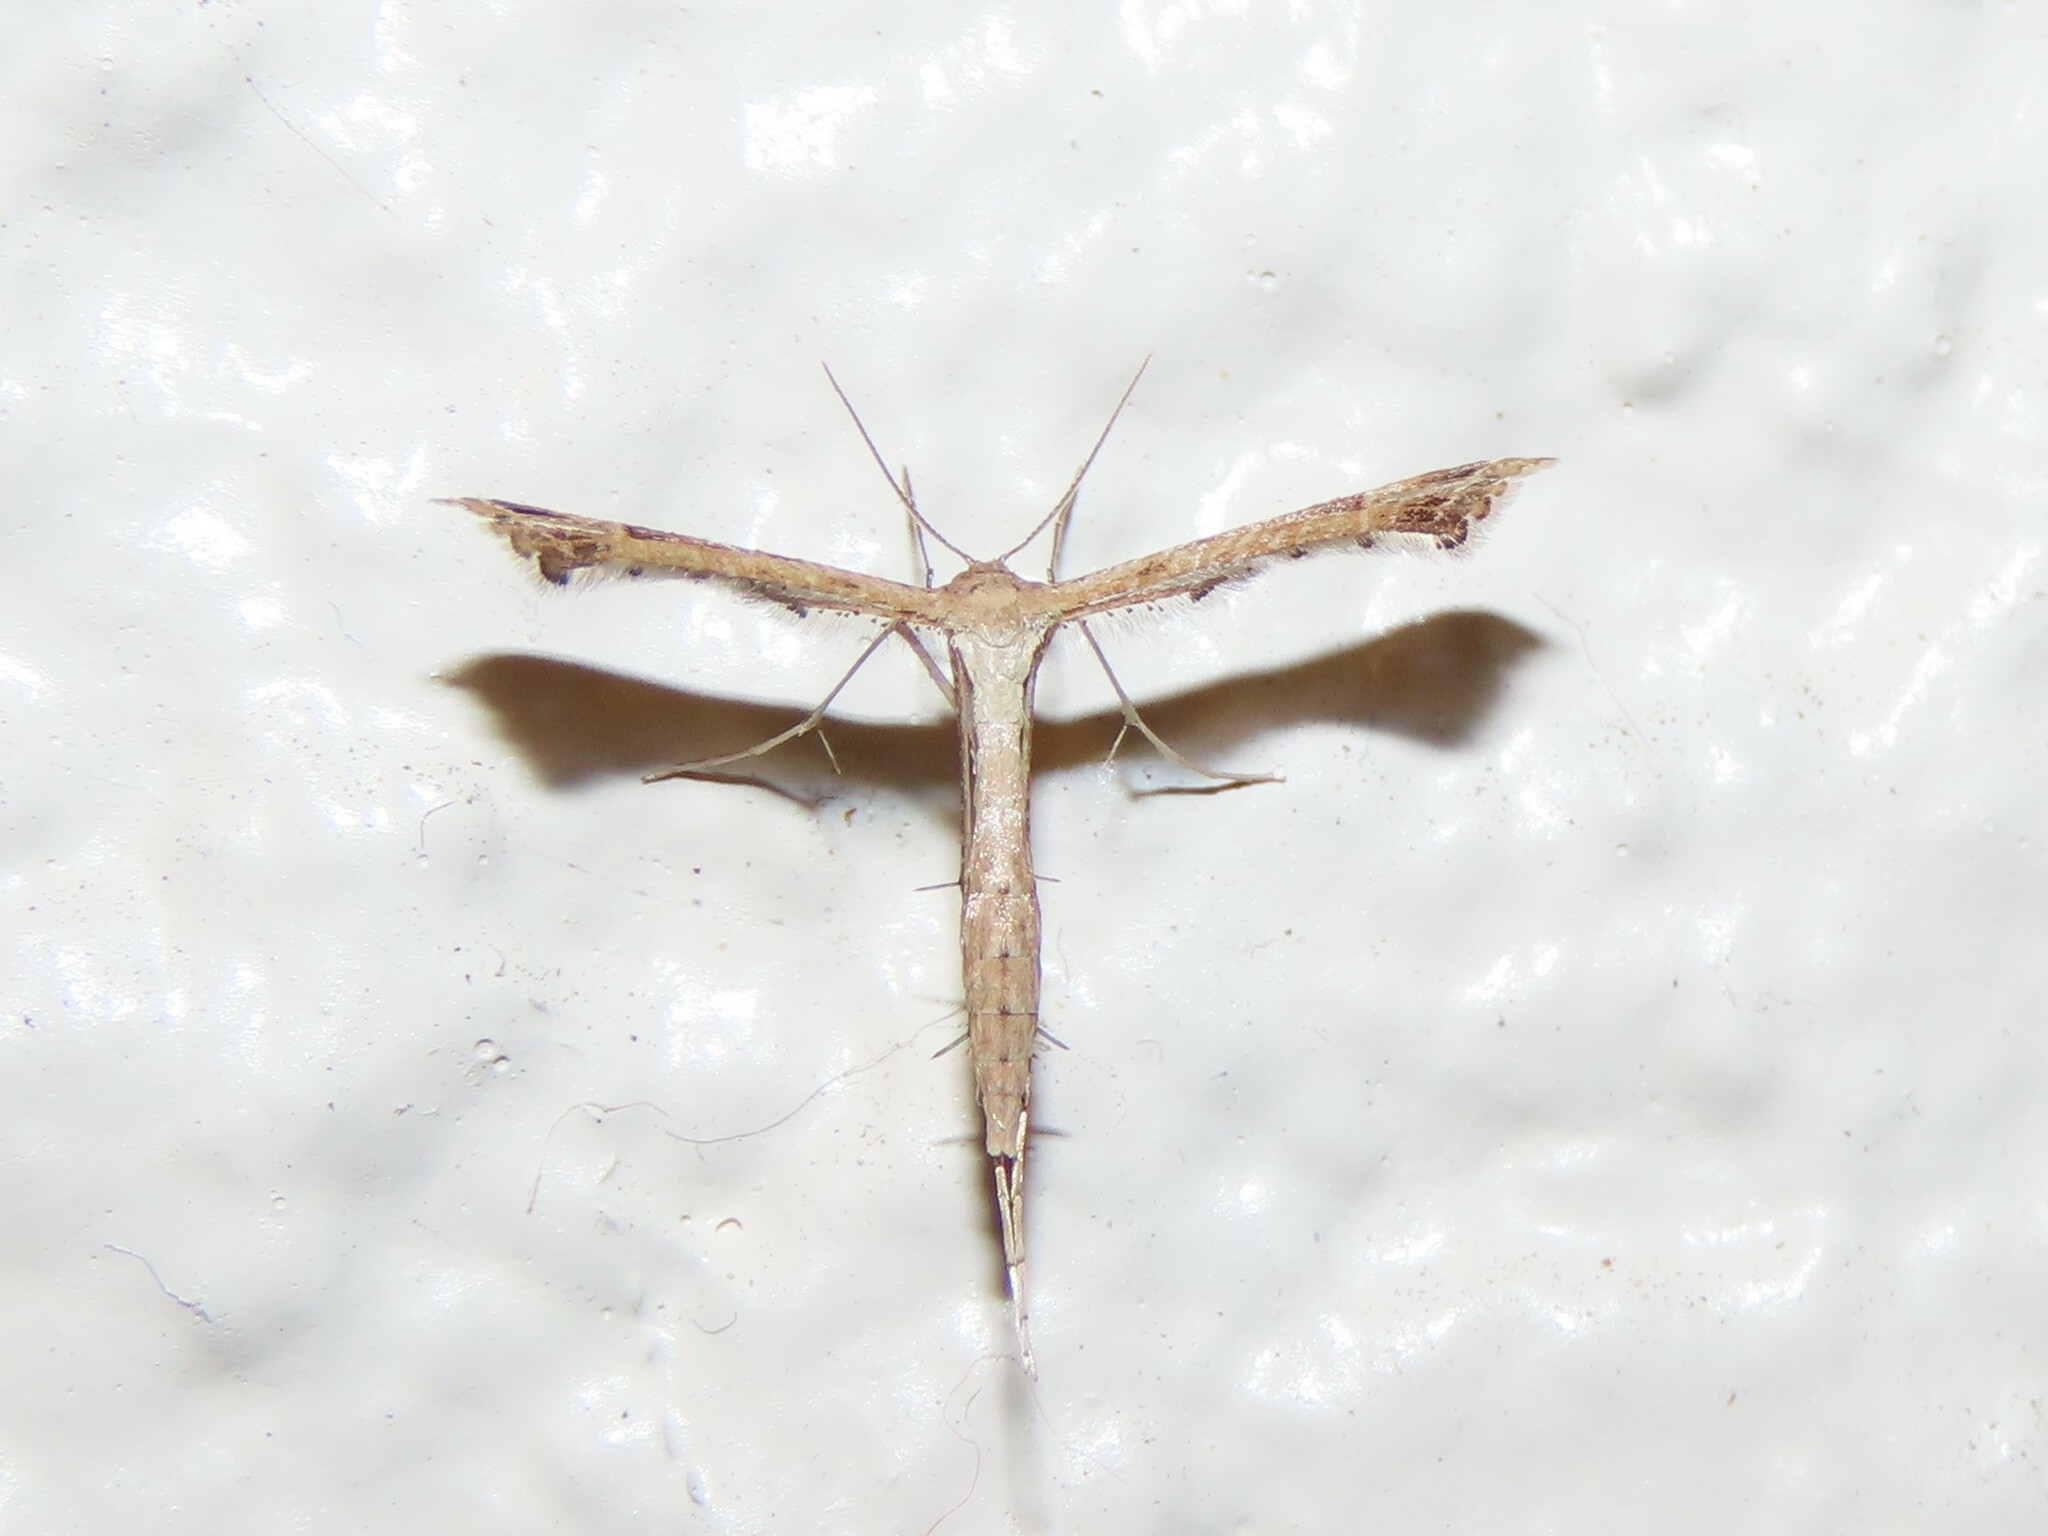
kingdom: Animalia
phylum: Arthropoda
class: Insecta
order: Lepidoptera
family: Pterophoridae
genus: Stenoptilodes
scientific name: Stenoptilodes brevipennis
